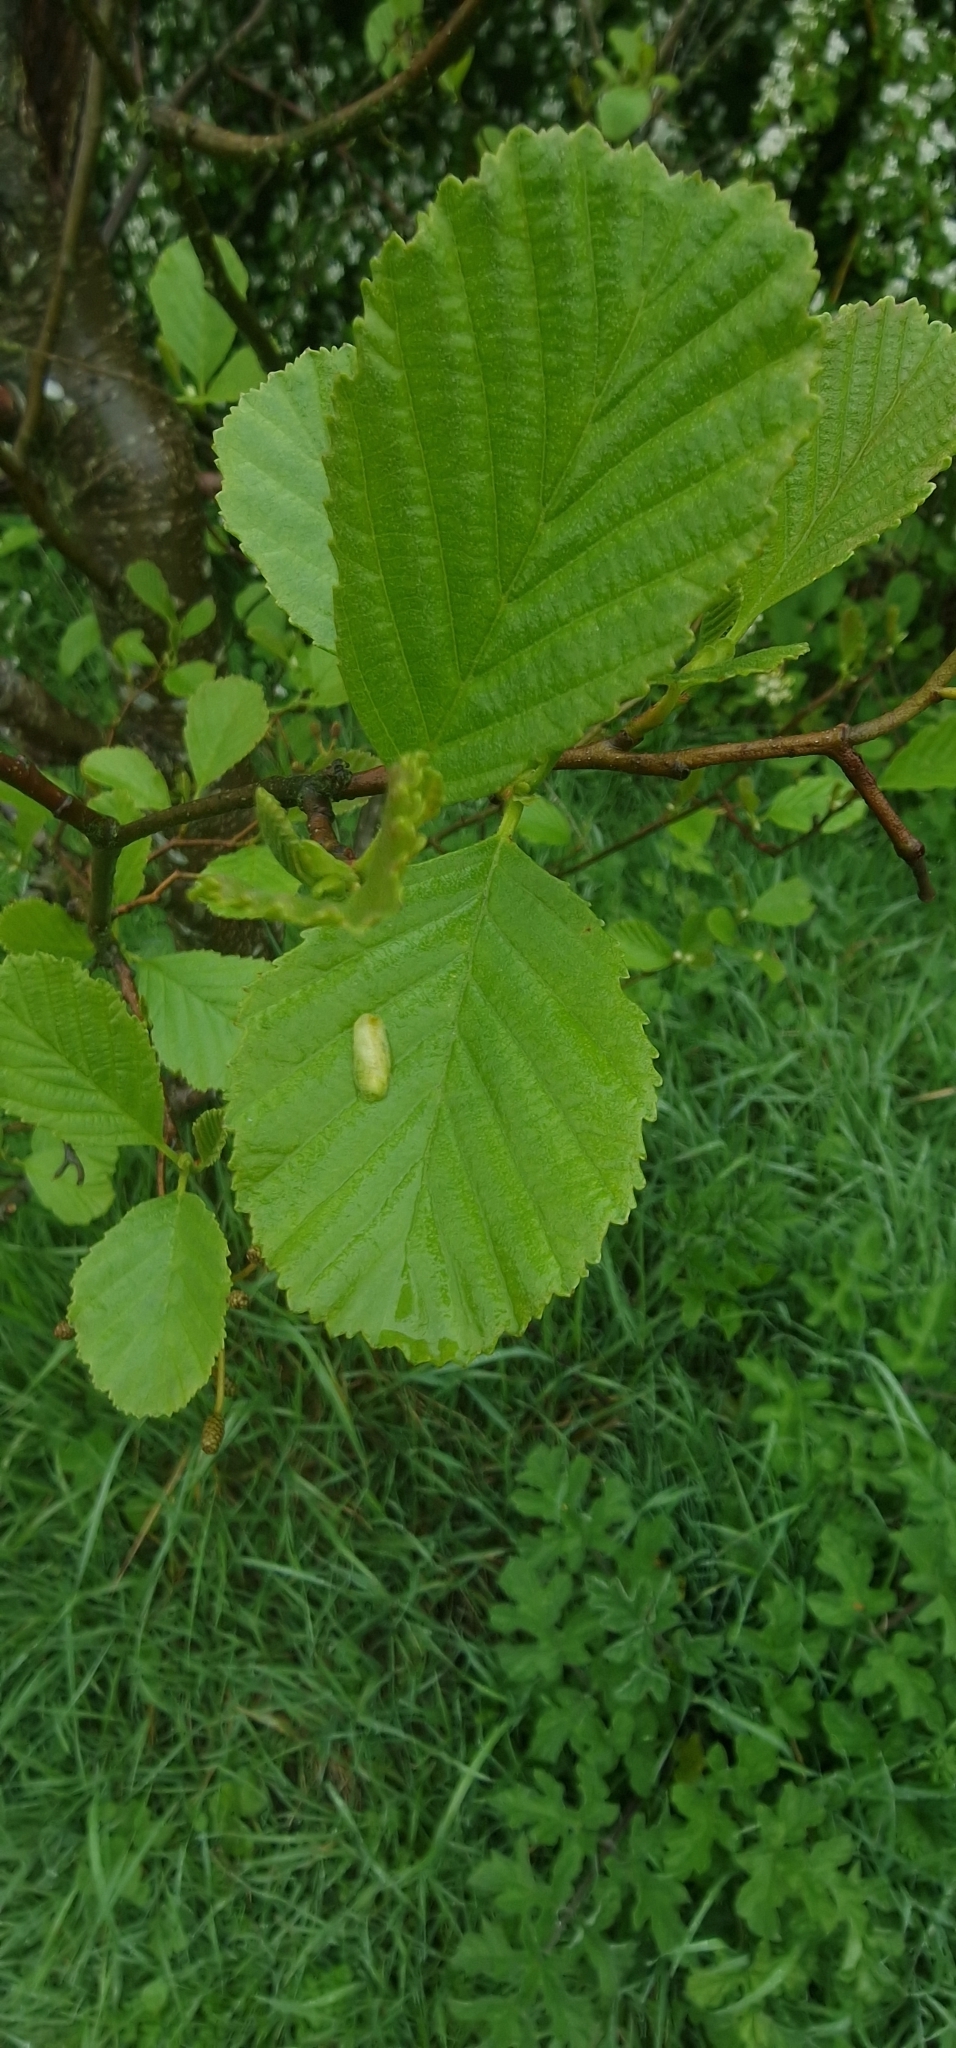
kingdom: Plantae
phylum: Tracheophyta
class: Magnoliopsida
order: Fagales
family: Betulaceae
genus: Alnus
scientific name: Alnus glutinosa
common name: Black alder
